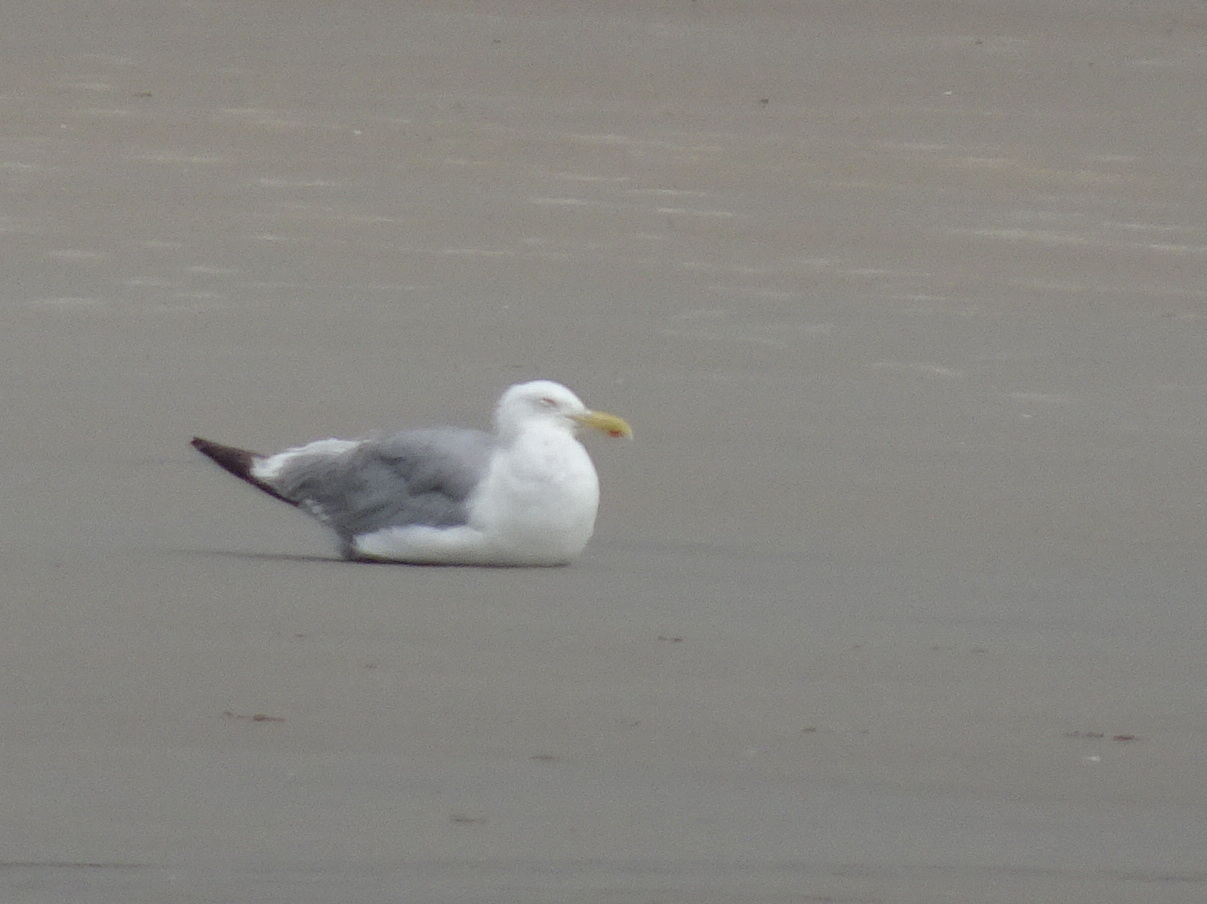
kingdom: Animalia
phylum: Chordata
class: Aves
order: Charadriiformes
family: Laridae
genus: Larus
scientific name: Larus argentatus
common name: Herring gull
